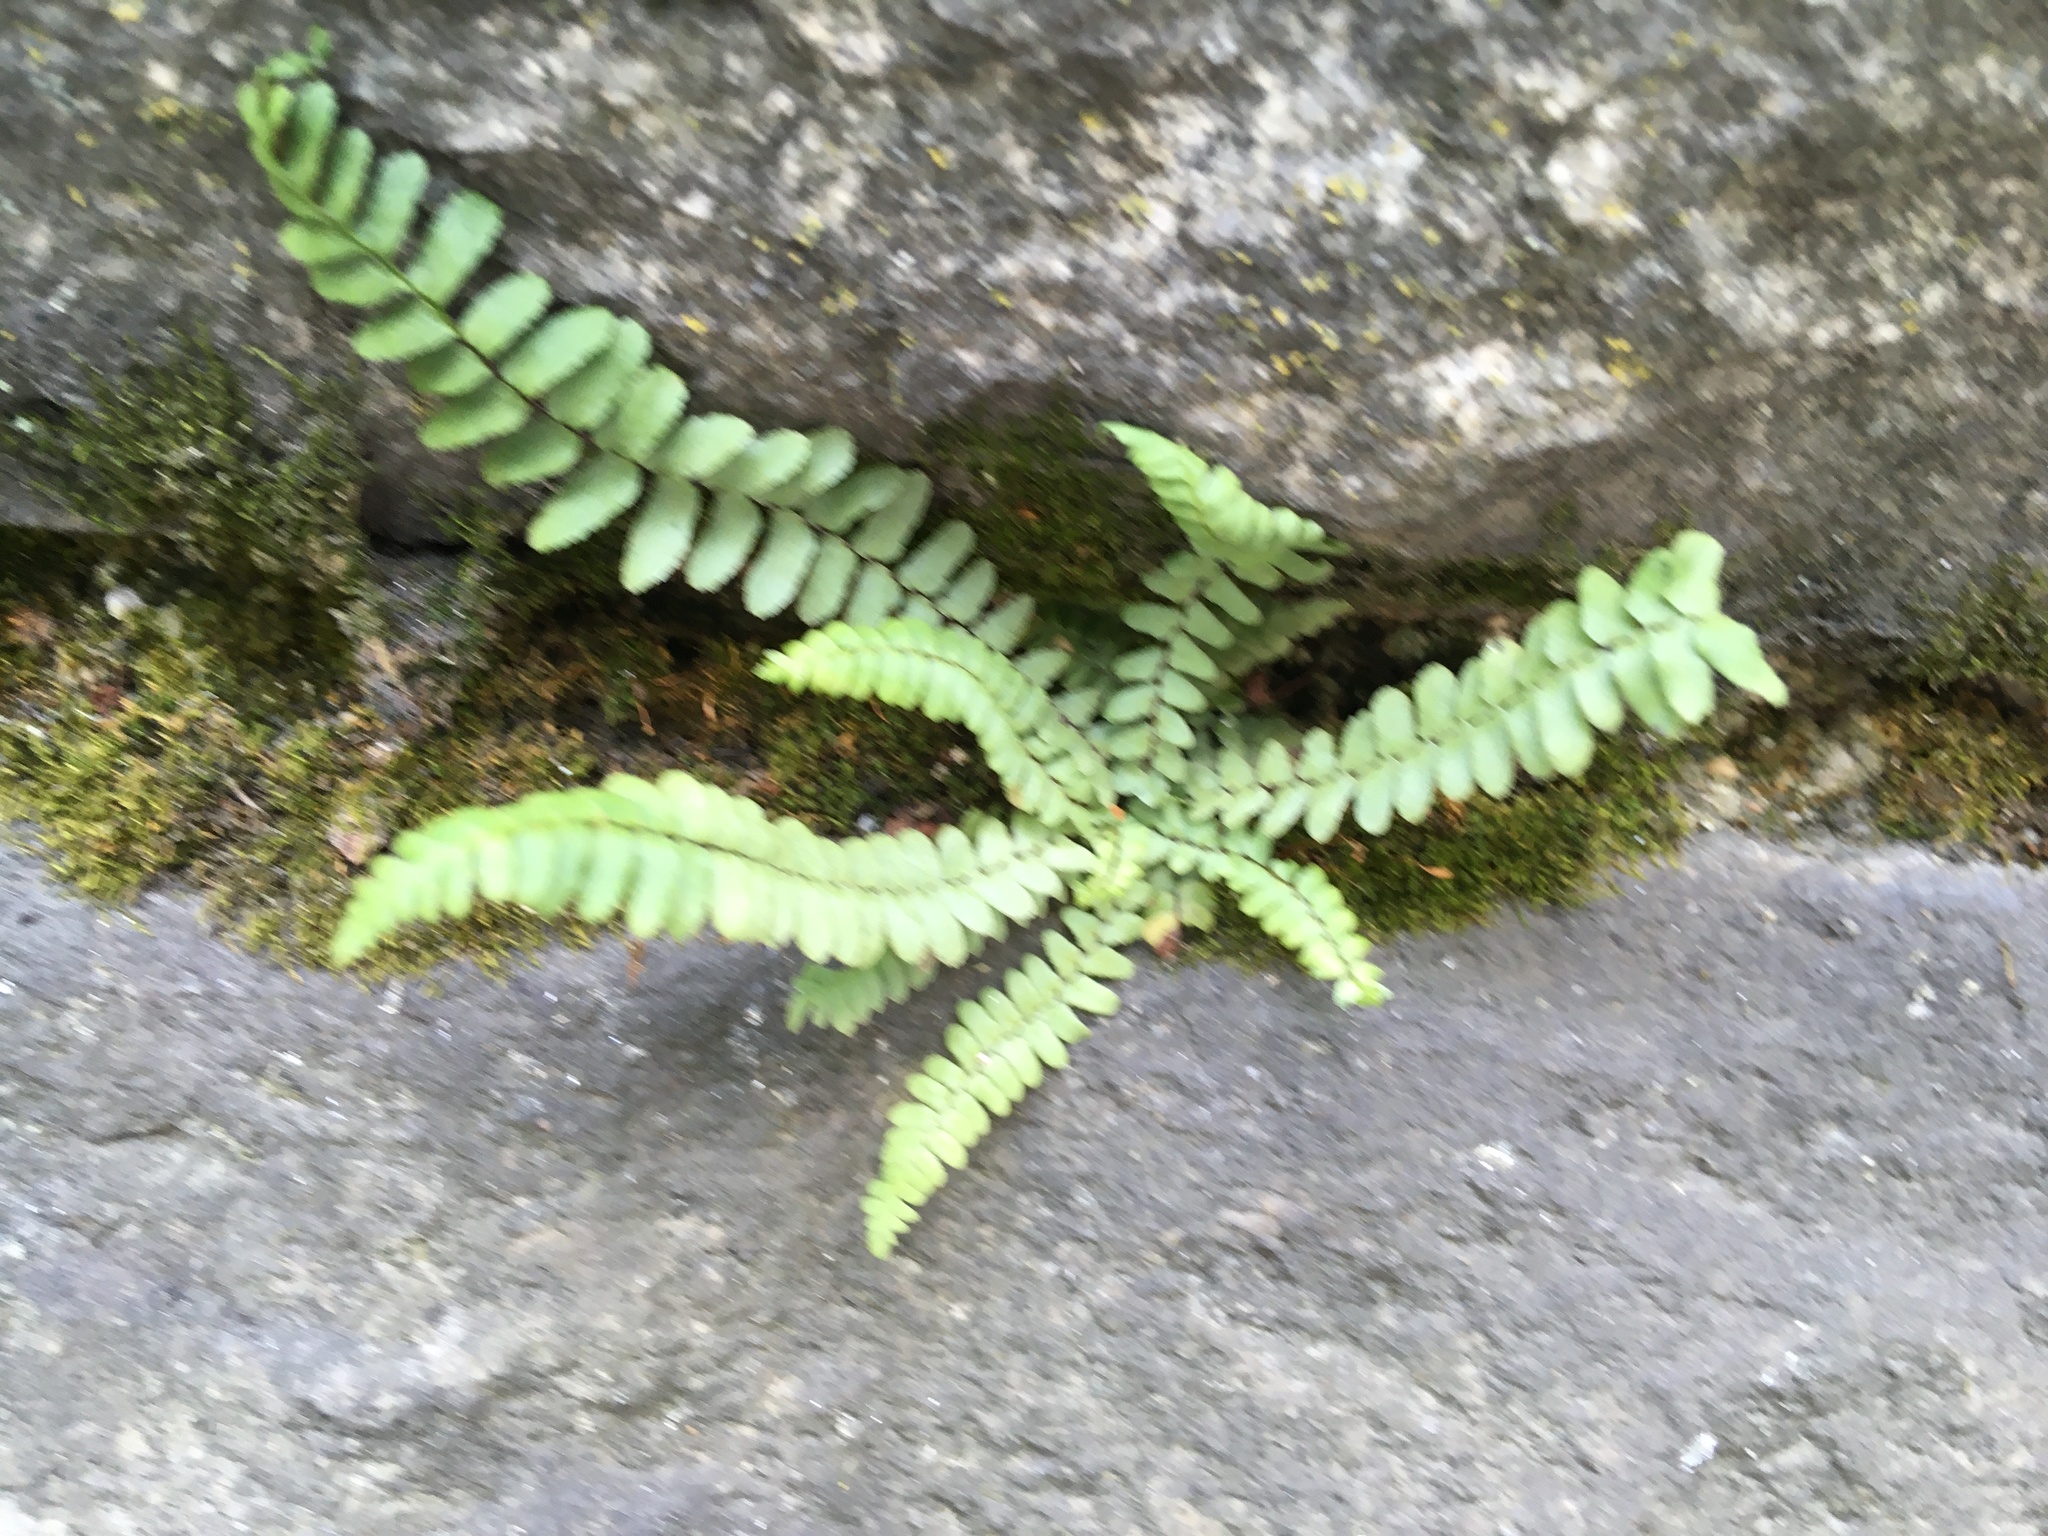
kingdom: Plantae
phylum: Tracheophyta
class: Polypodiopsida
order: Polypodiales
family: Aspleniaceae
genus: Asplenium
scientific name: Asplenium platyneuron
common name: Ebony spleenwort
